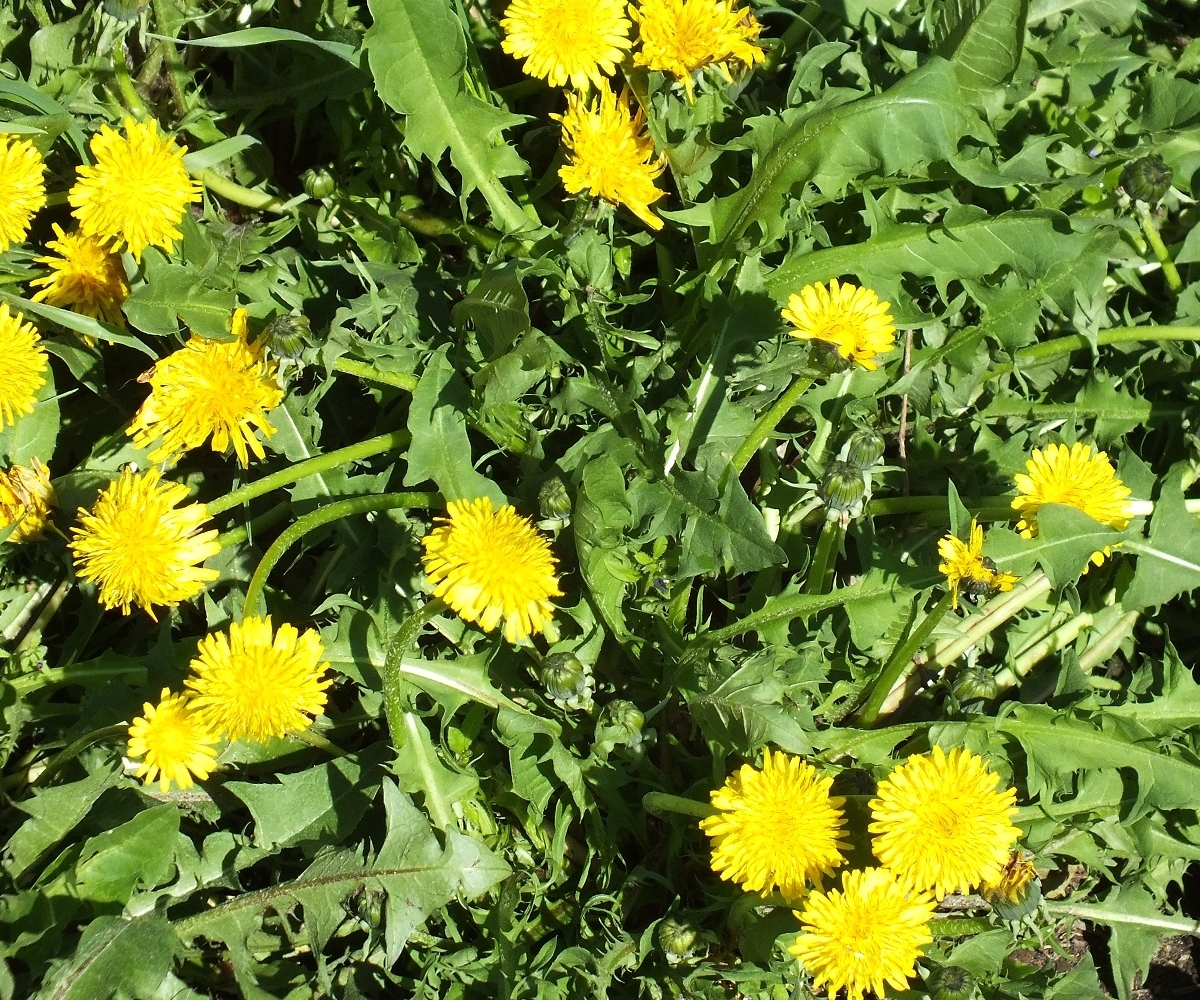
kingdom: Plantae
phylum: Tracheophyta
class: Magnoliopsida
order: Asterales
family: Asteraceae
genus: Taraxacum
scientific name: Taraxacum officinale
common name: Common dandelion
